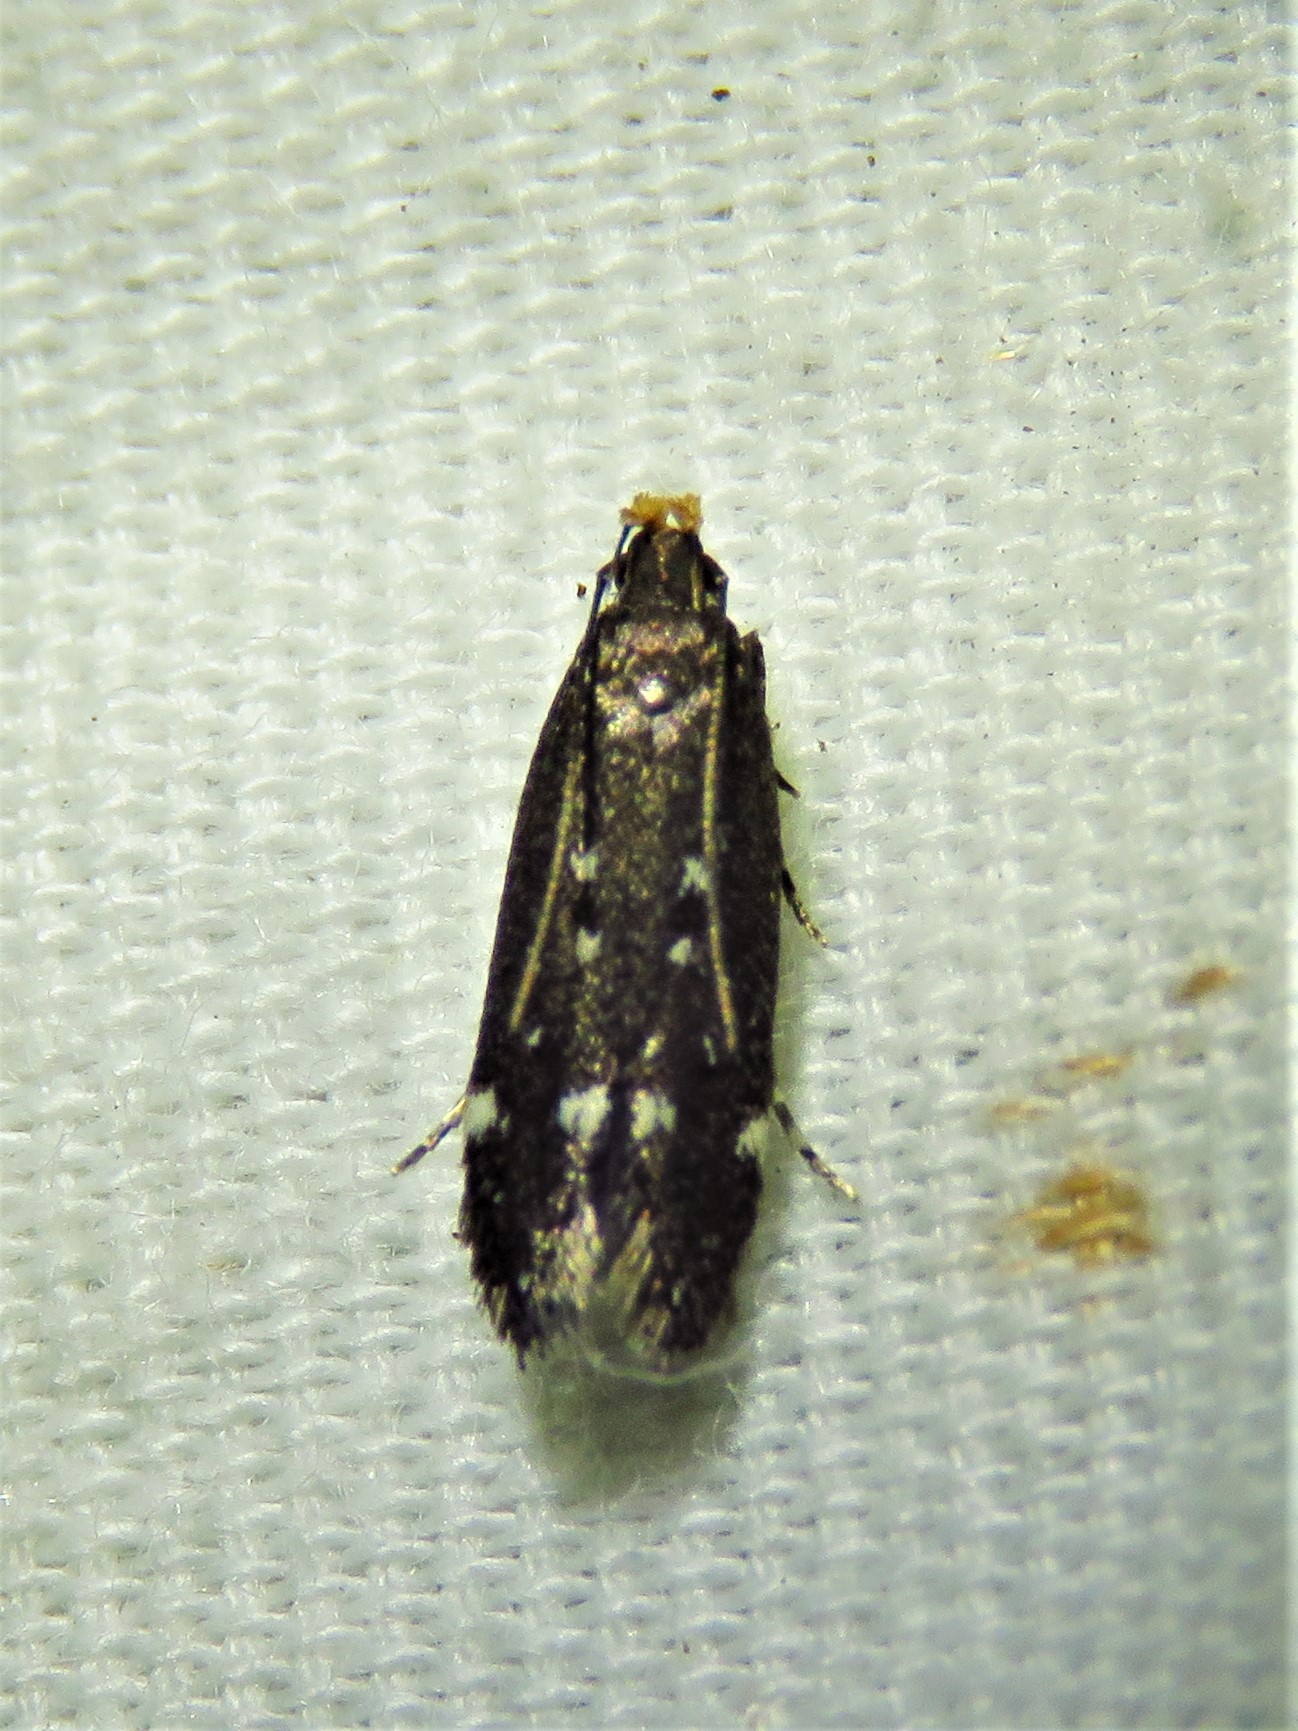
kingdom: Animalia
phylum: Arthropoda
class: Insecta
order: Lepidoptera
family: Gelechiidae
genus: Aroga
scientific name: Aroga epigaeella
